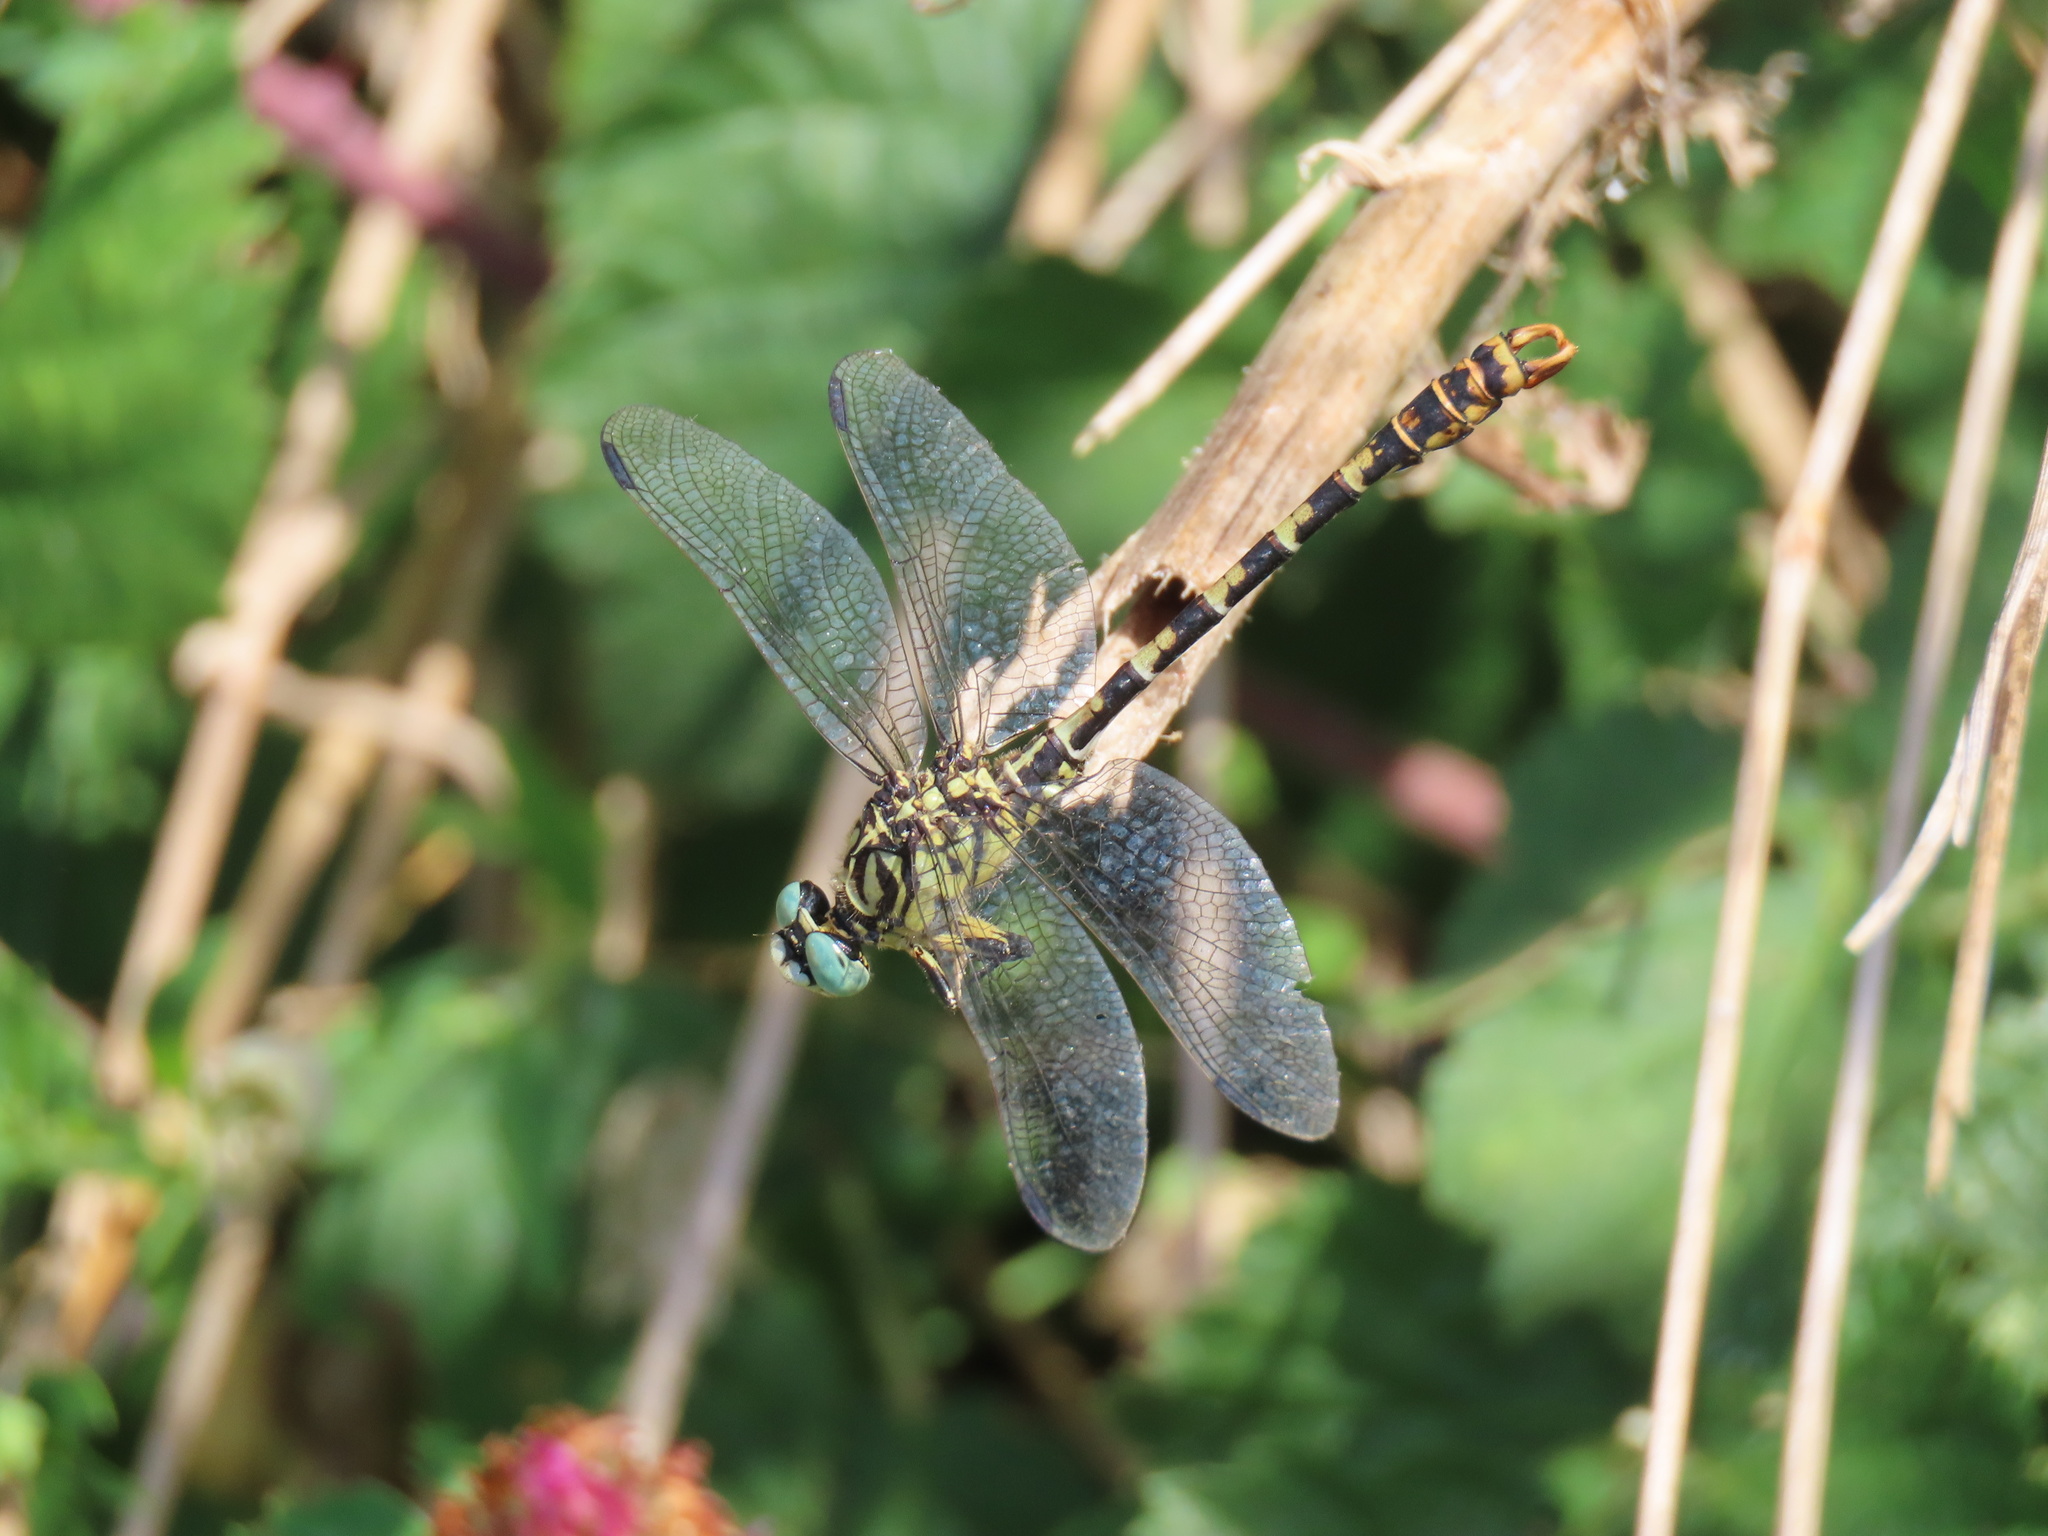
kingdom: Animalia
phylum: Arthropoda
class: Insecta
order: Odonata
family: Gomphidae
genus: Onychogomphus
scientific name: Onychogomphus forcipatus
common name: Small pincertail
